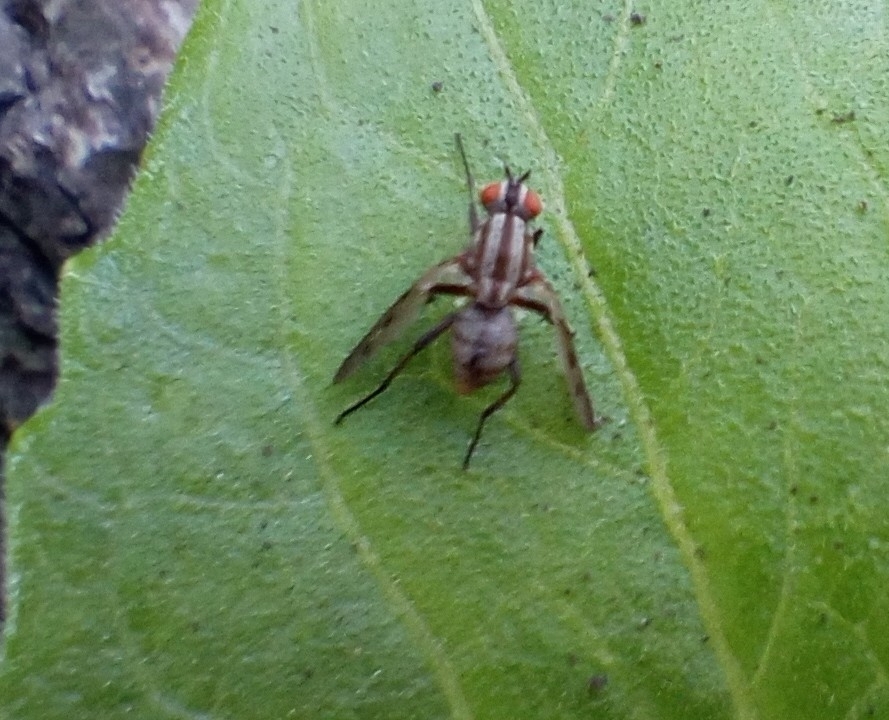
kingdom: Animalia
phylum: Arthropoda
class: Insecta
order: Diptera
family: Anthomyiidae
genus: Anthomyia
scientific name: Anthomyia punctipennis
